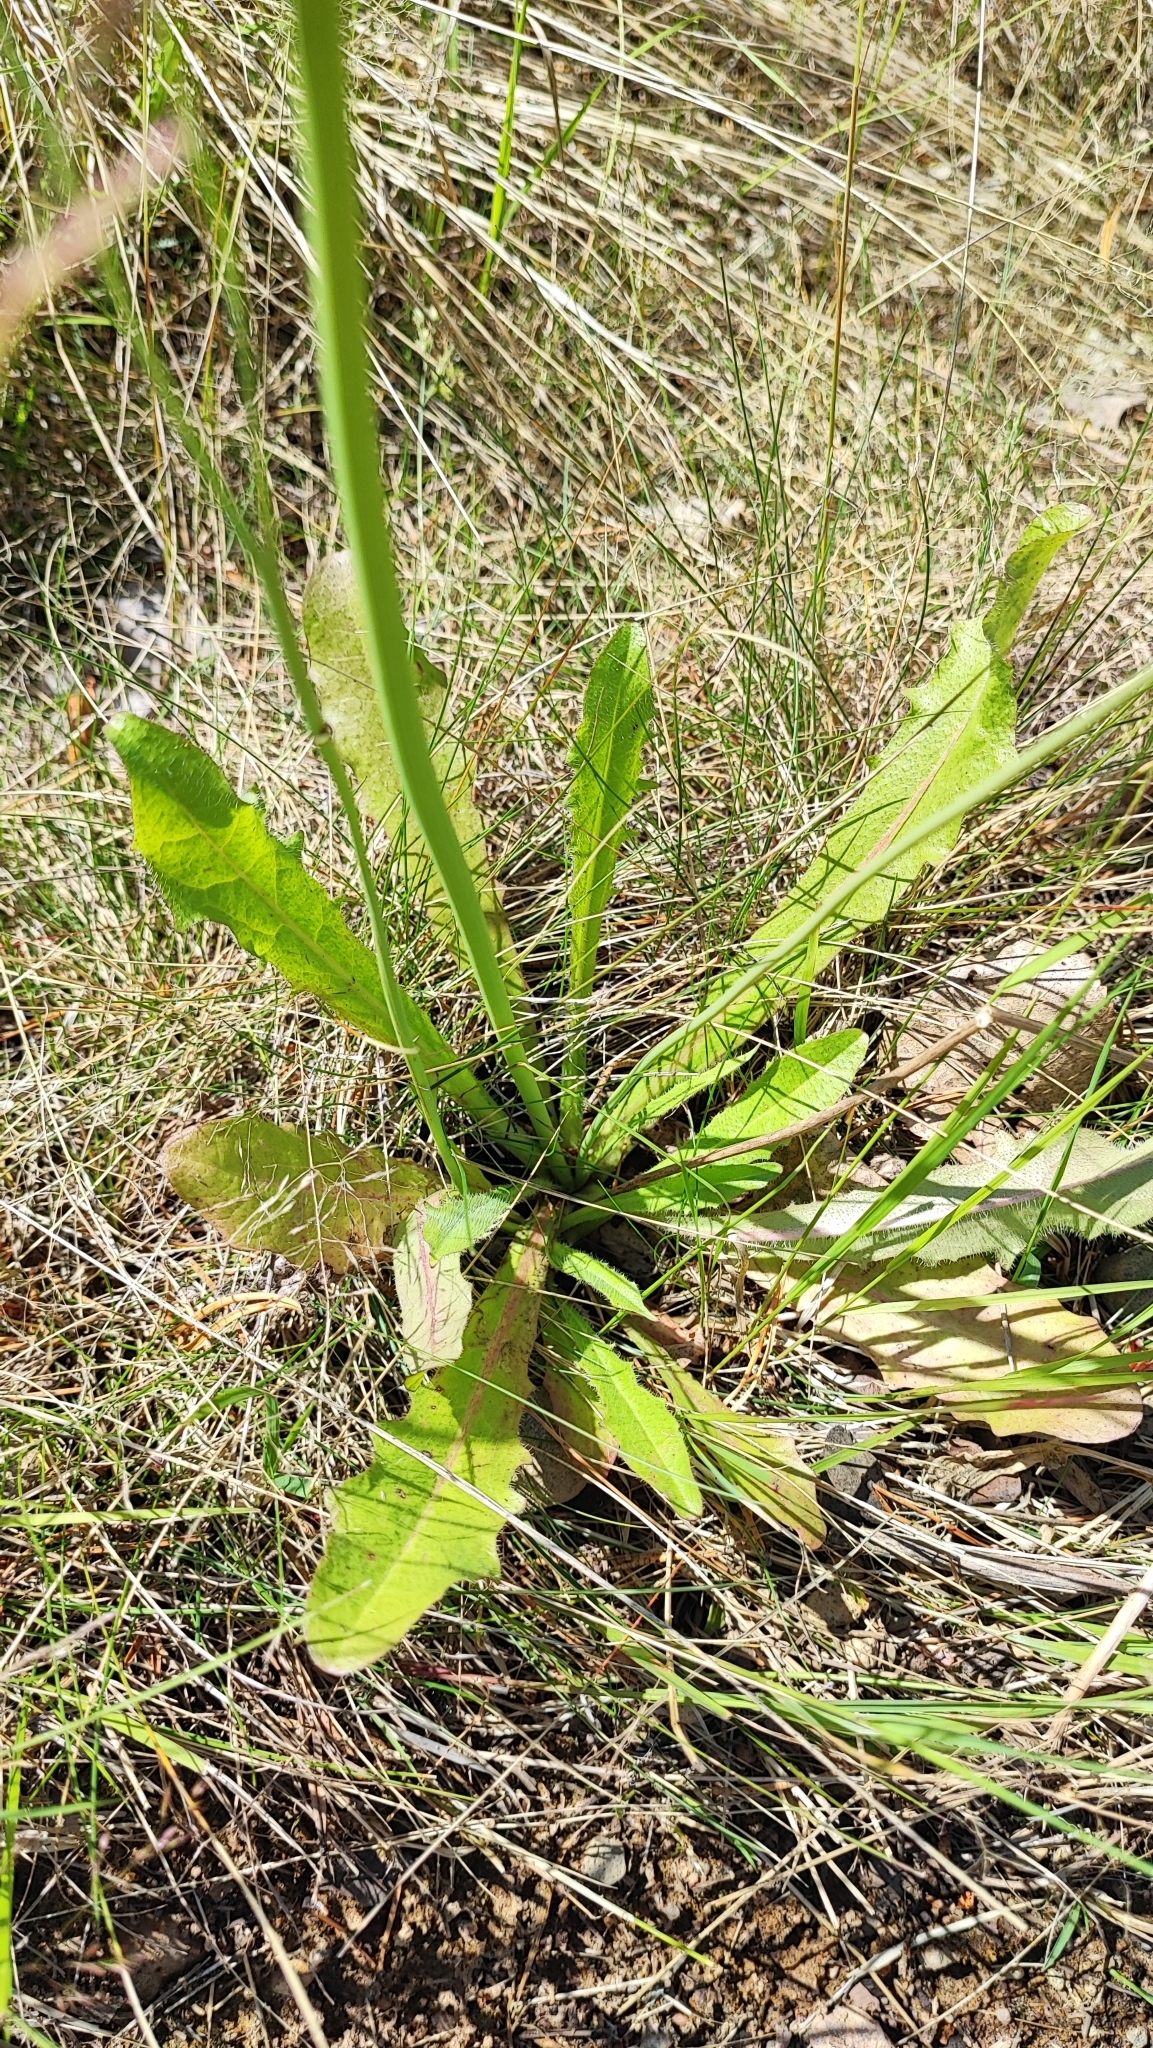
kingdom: Plantae
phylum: Tracheophyta
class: Magnoliopsida
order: Asterales
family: Asteraceae
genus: Hypochaeris
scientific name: Hypochaeris radicata
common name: Flatweed
